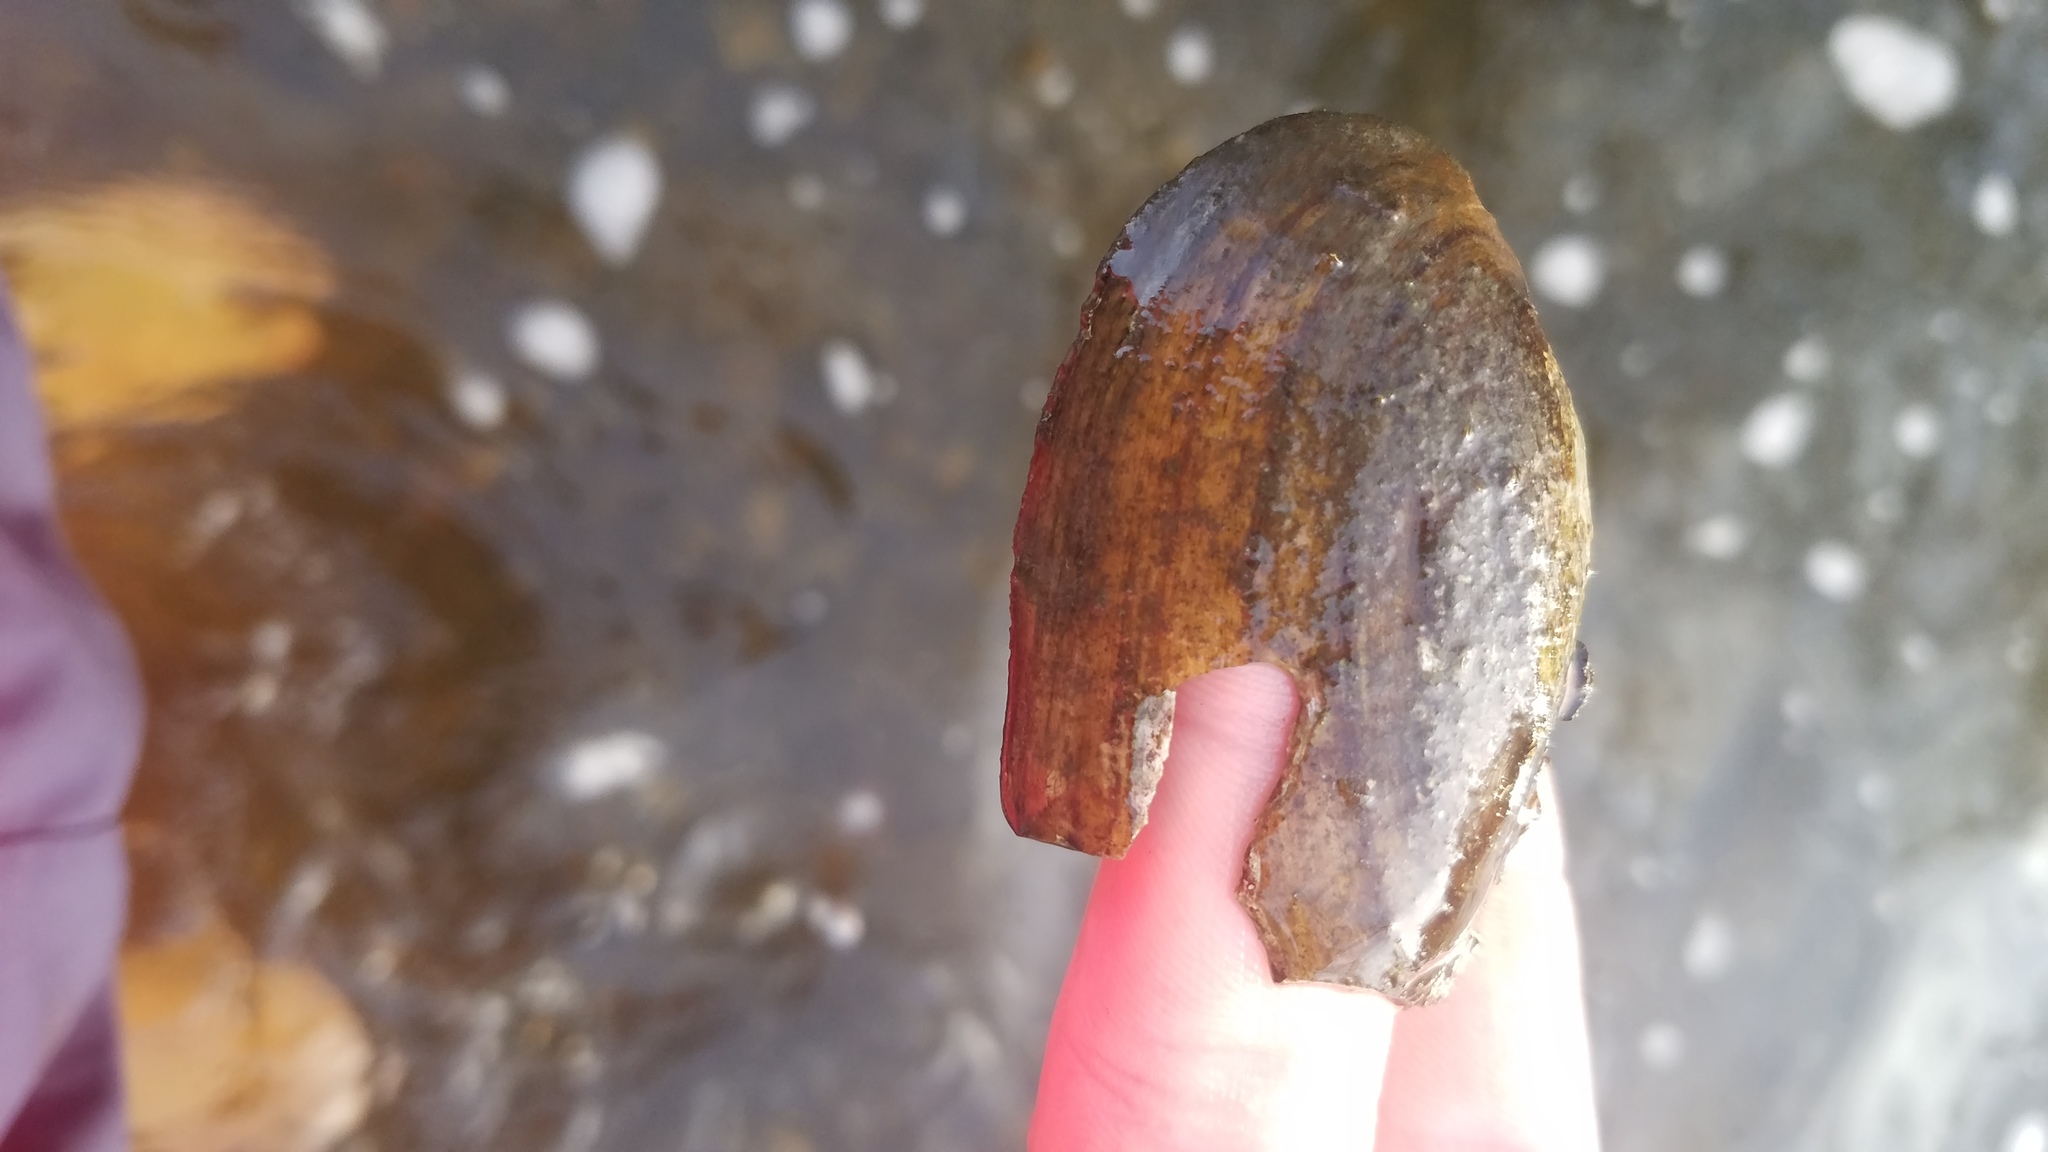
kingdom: Animalia
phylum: Mollusca
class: Bivalvia
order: Unionida
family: Unionidae
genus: Venustaconcha
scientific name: Venustaconcha ellipsiformis
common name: Ellipse
